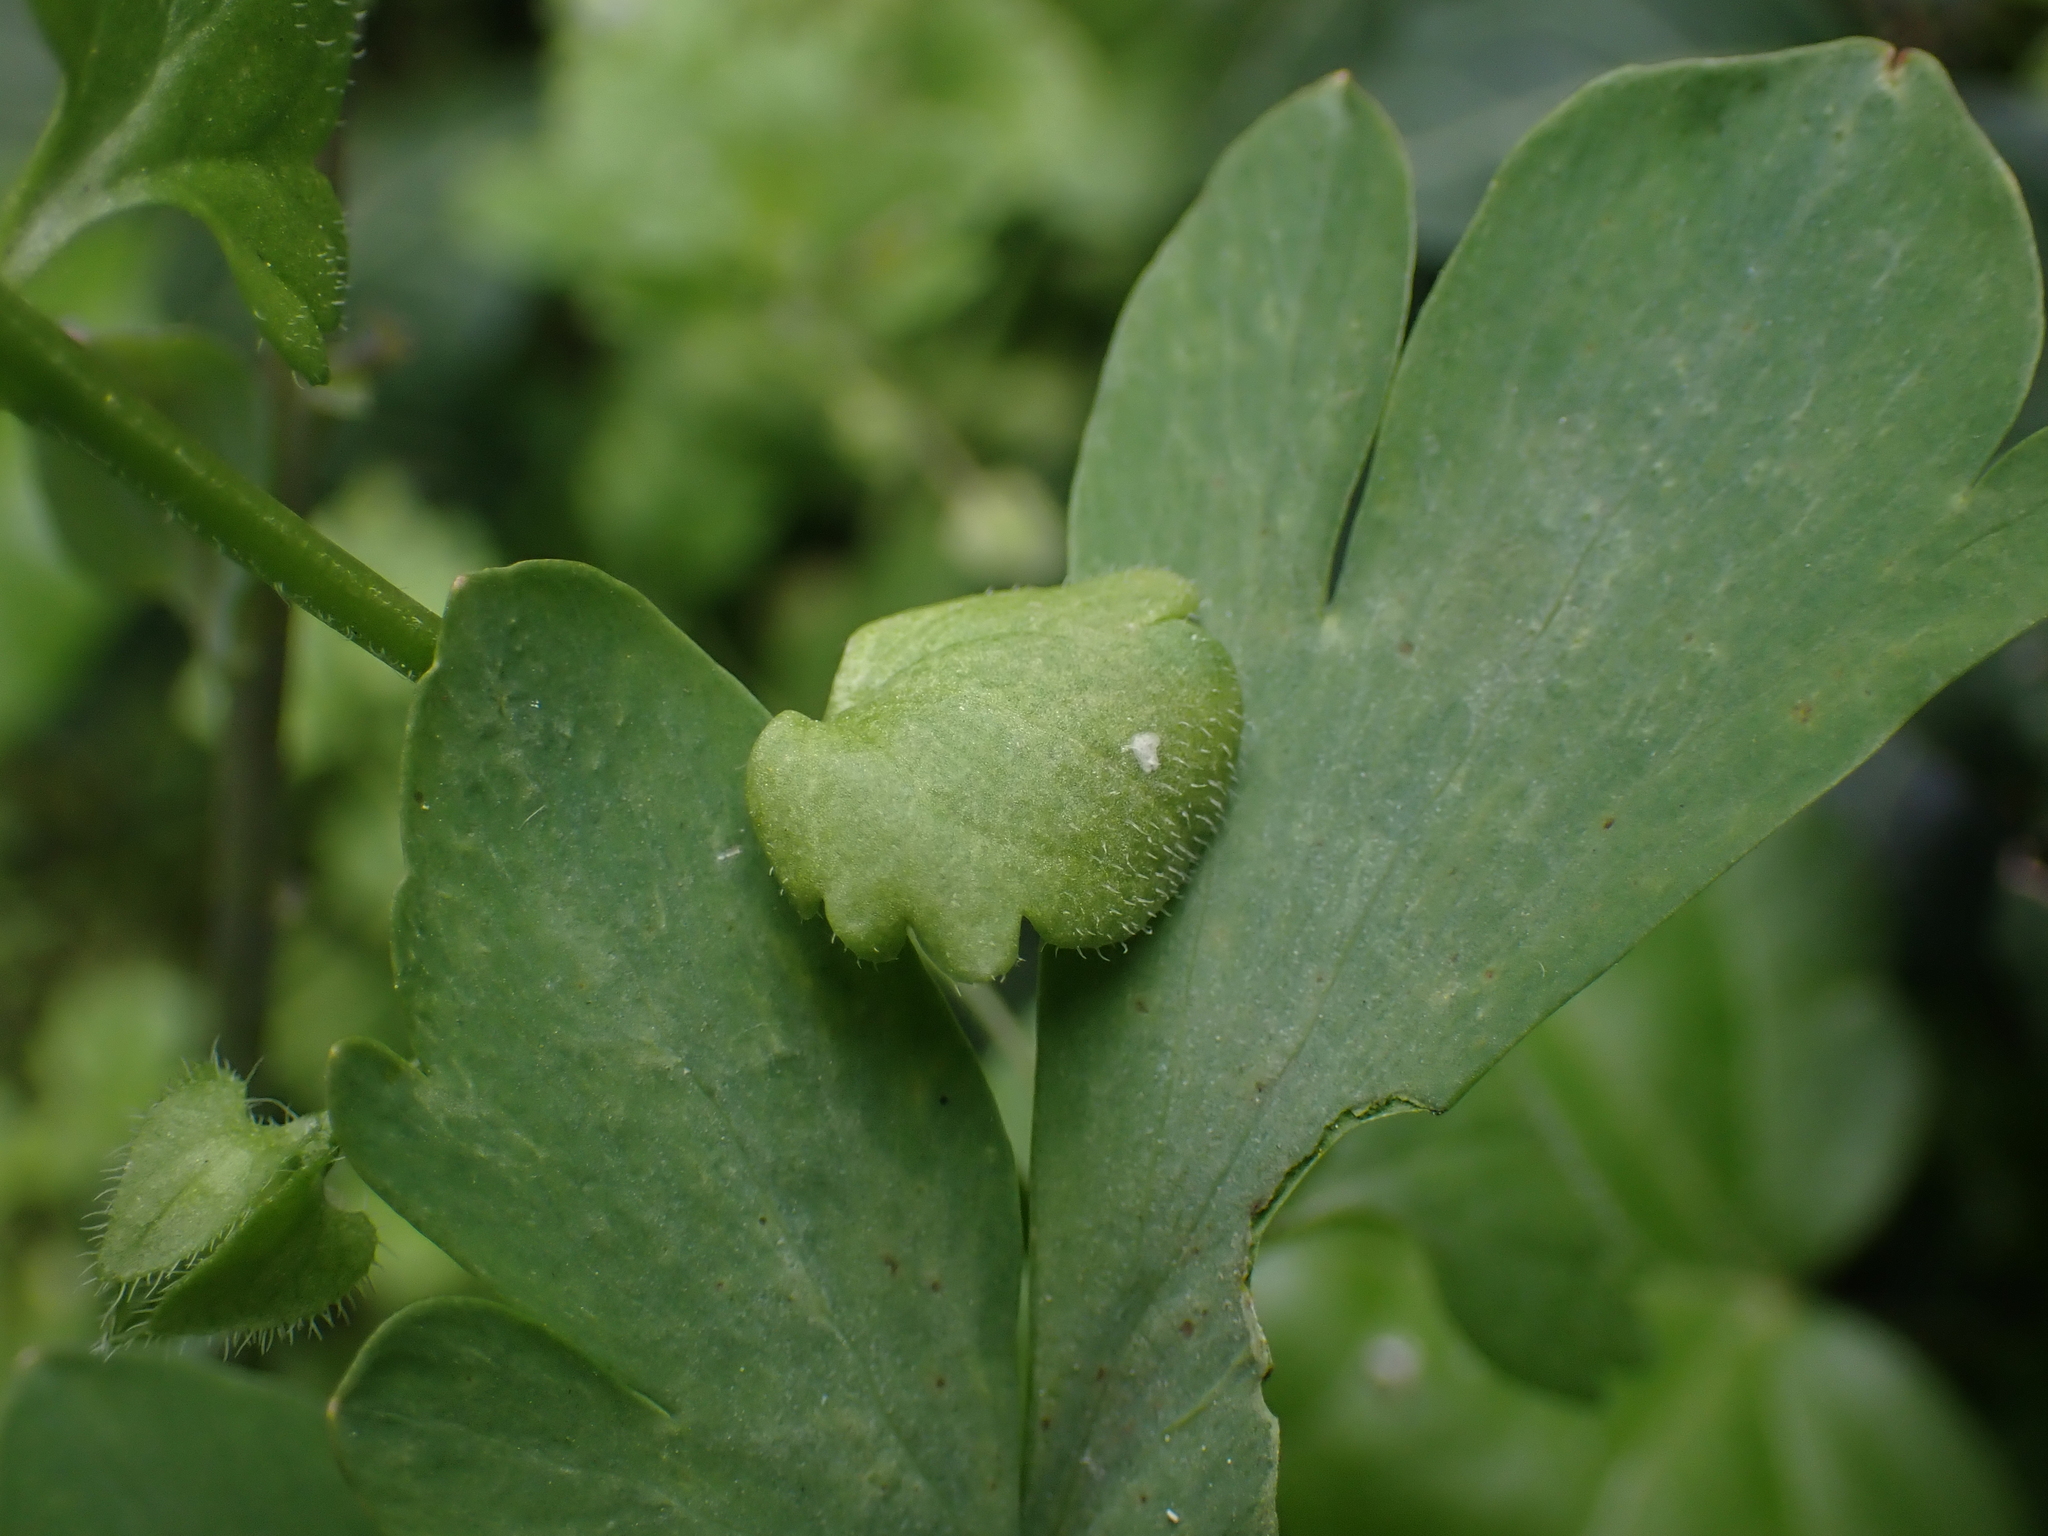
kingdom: Chromista
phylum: Oomycota
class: Peronosporea
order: Peronosporales
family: Peronosporaceae
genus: Peronospora
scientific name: Peronospora arvensis
